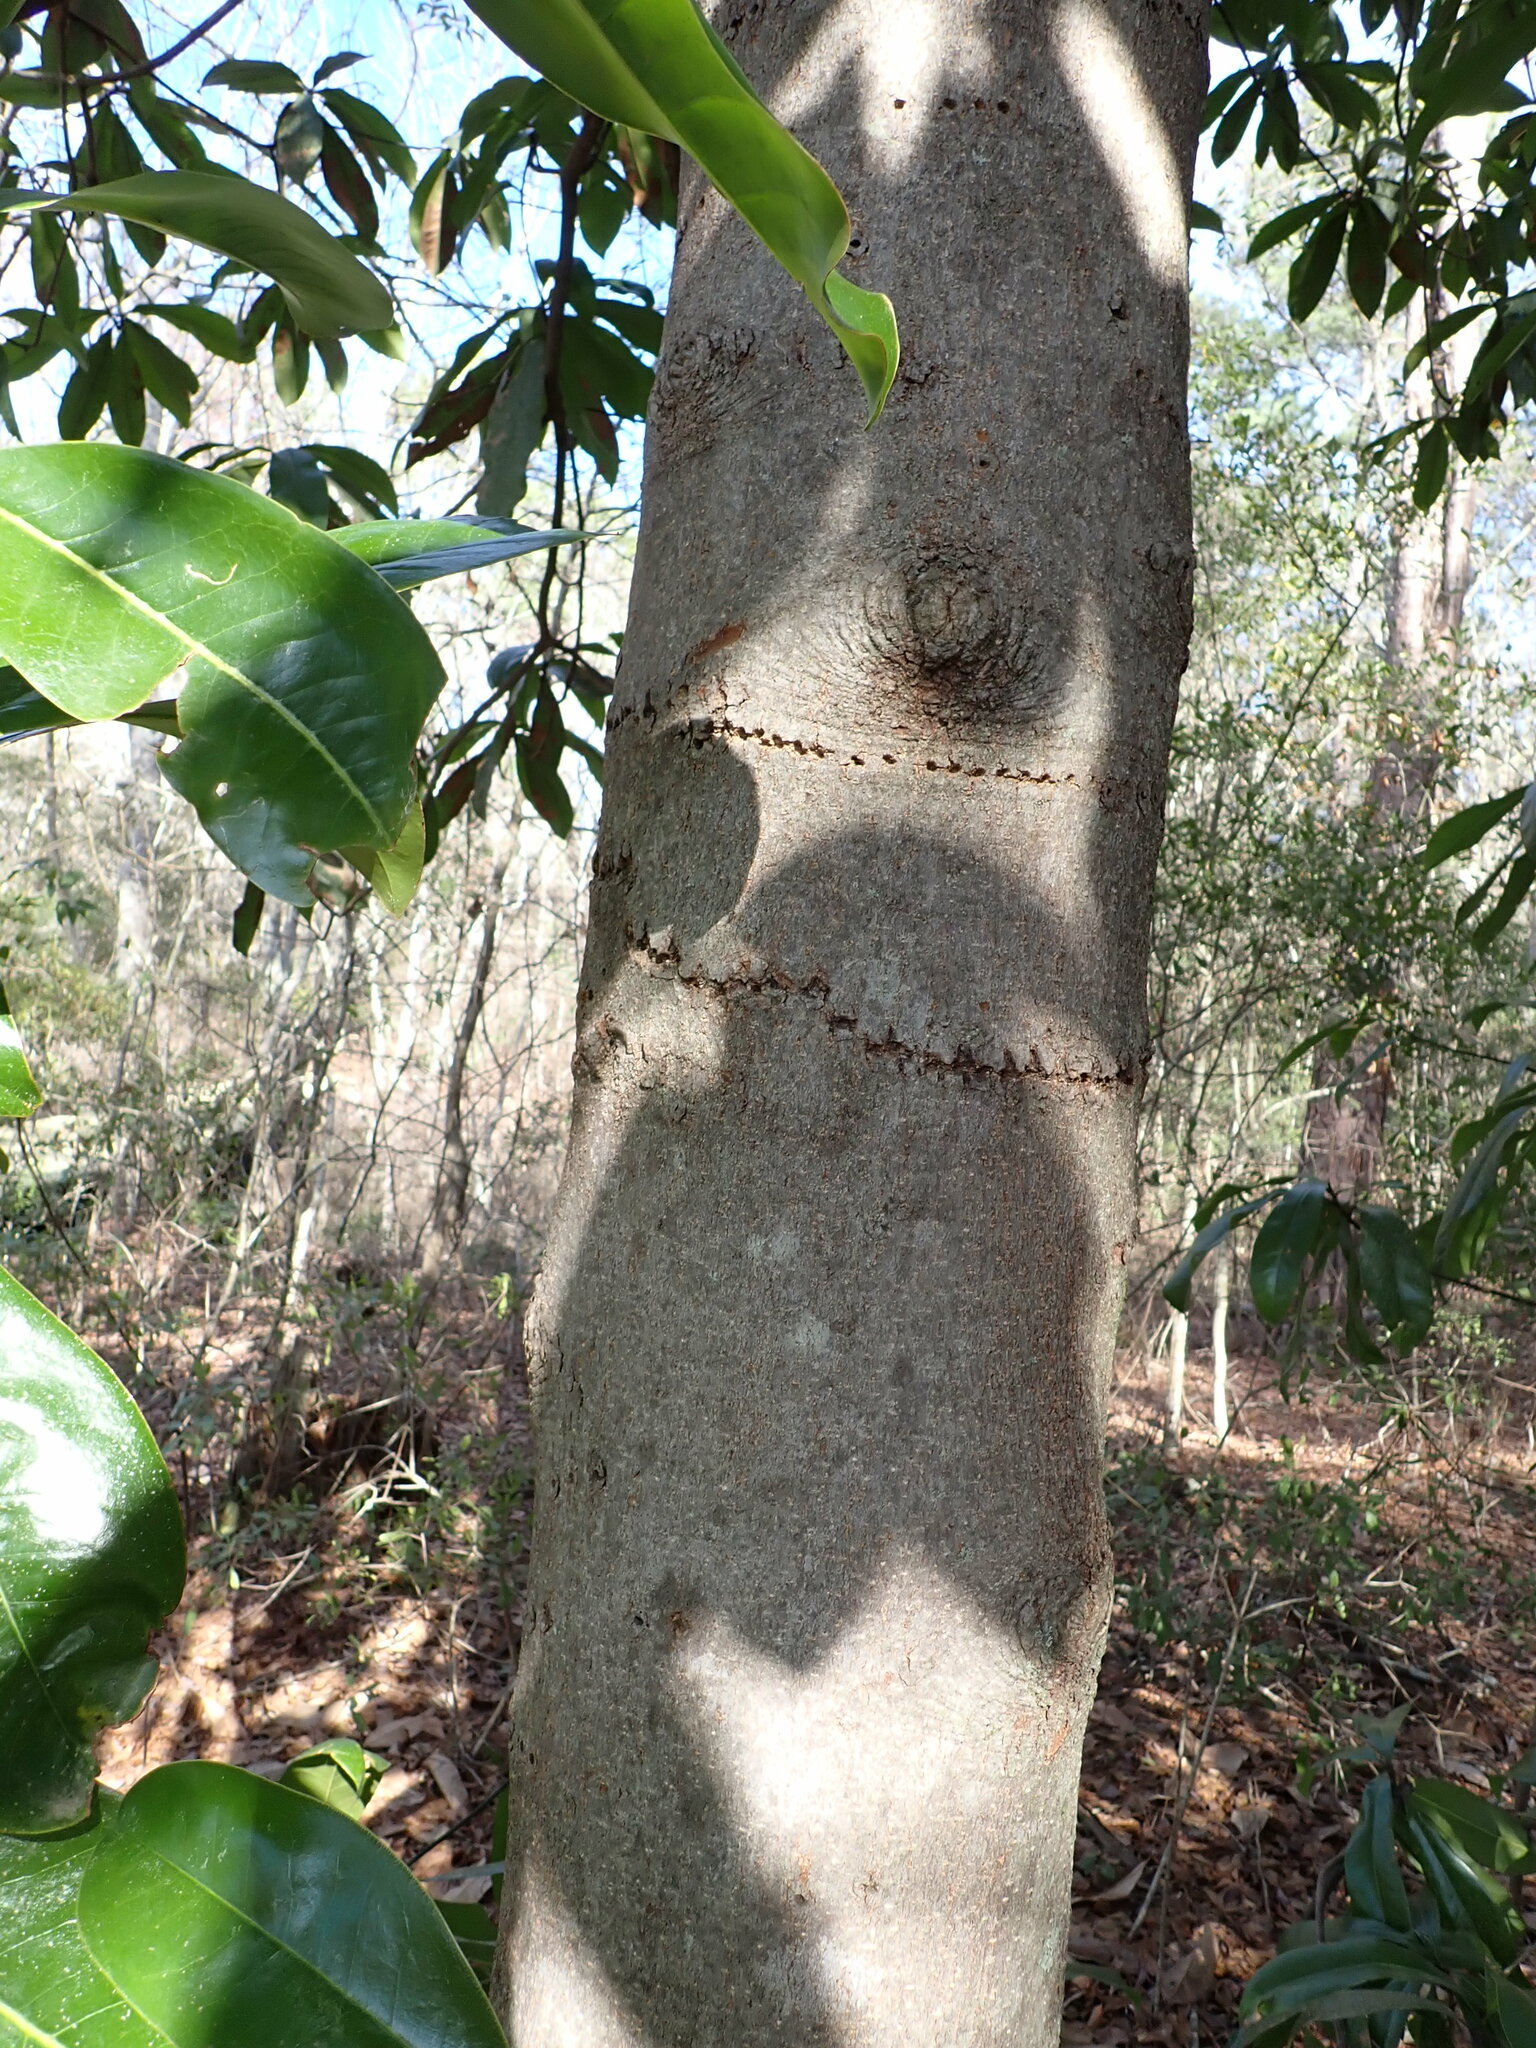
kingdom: Plantae
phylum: Tracheophyta
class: Magnoliopsida
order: Magnoliales
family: Magnoliaceae
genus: Magnolia
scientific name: Magnolia grandiflora
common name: Southern magnolia
